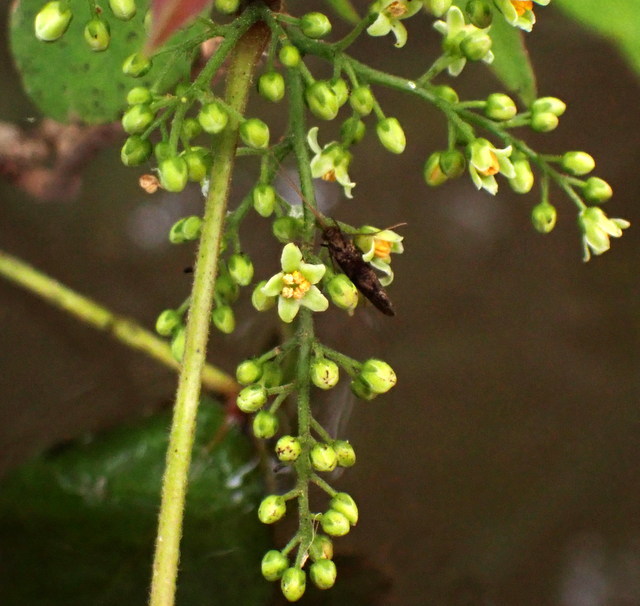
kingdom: Plantae
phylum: Tracheophyta
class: Magnoliopsida
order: Sapindales
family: Anacardiaceae
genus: Toxicodendron
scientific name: Toxicodendron radicans
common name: Poison ivy
